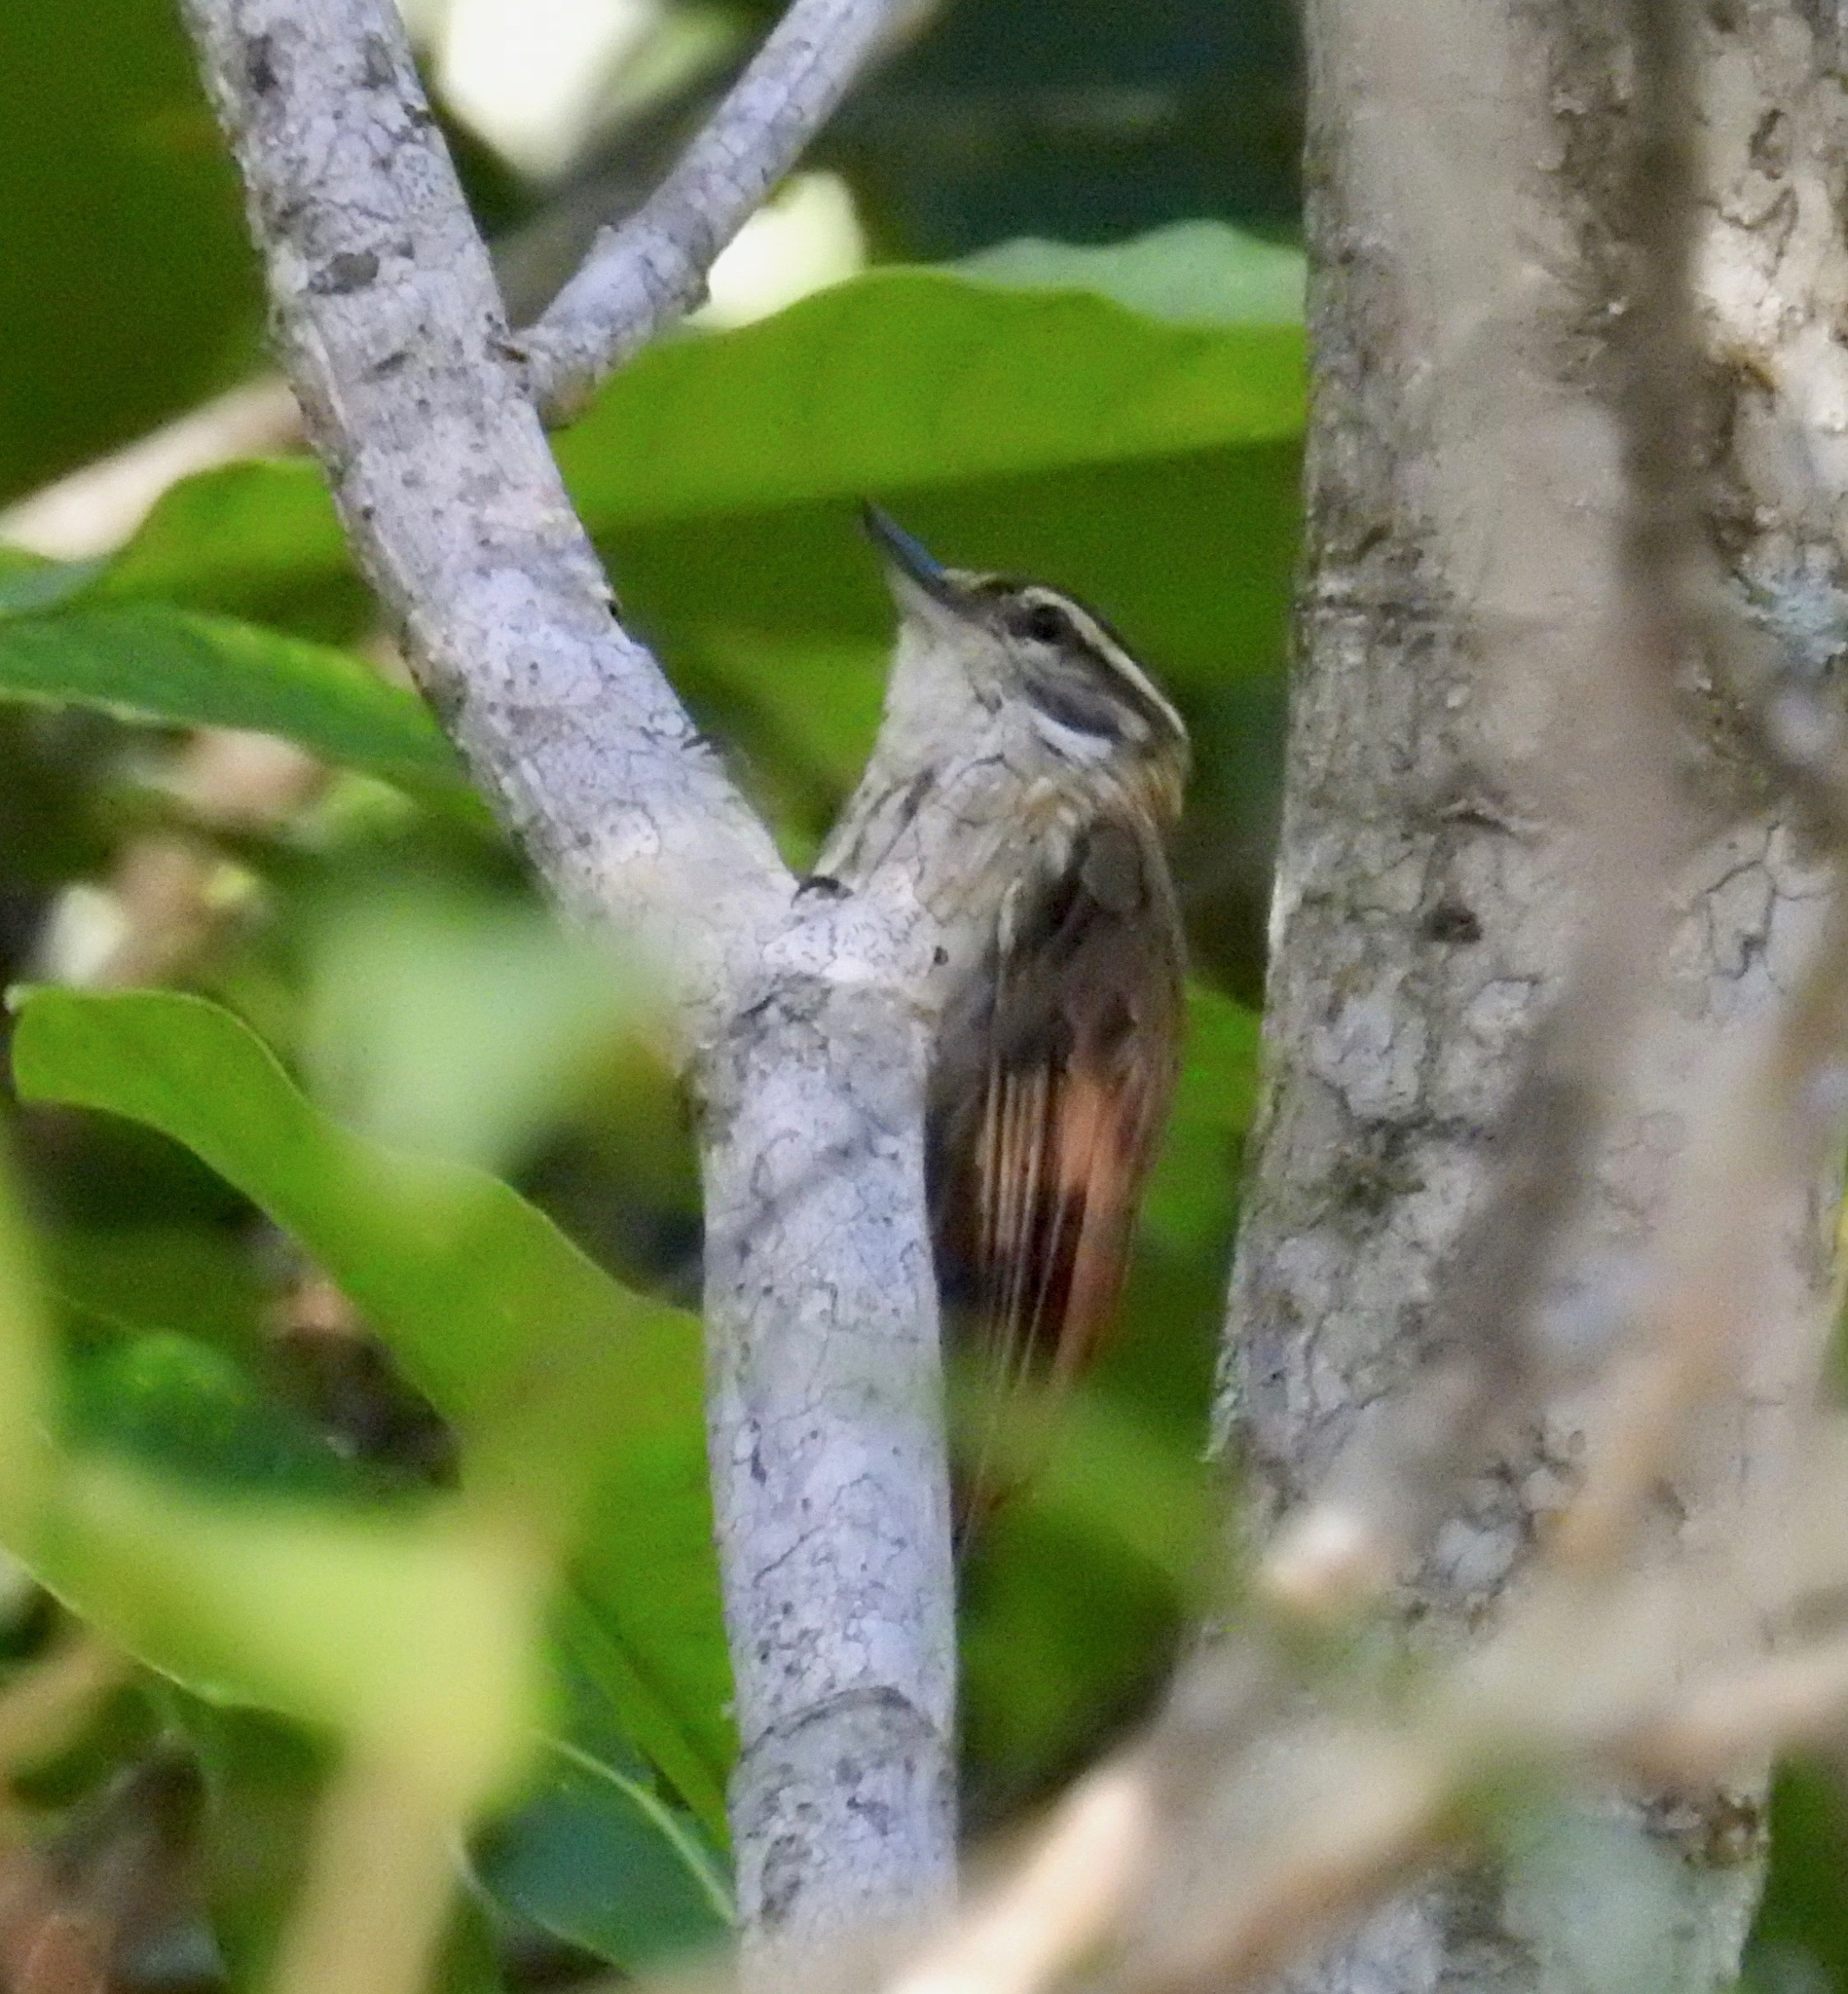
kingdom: Animalia
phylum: Chordata
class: Aves
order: Passeriformes
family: Furnariidae
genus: Xenops
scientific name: Xenops minutus
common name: Plain xenops
